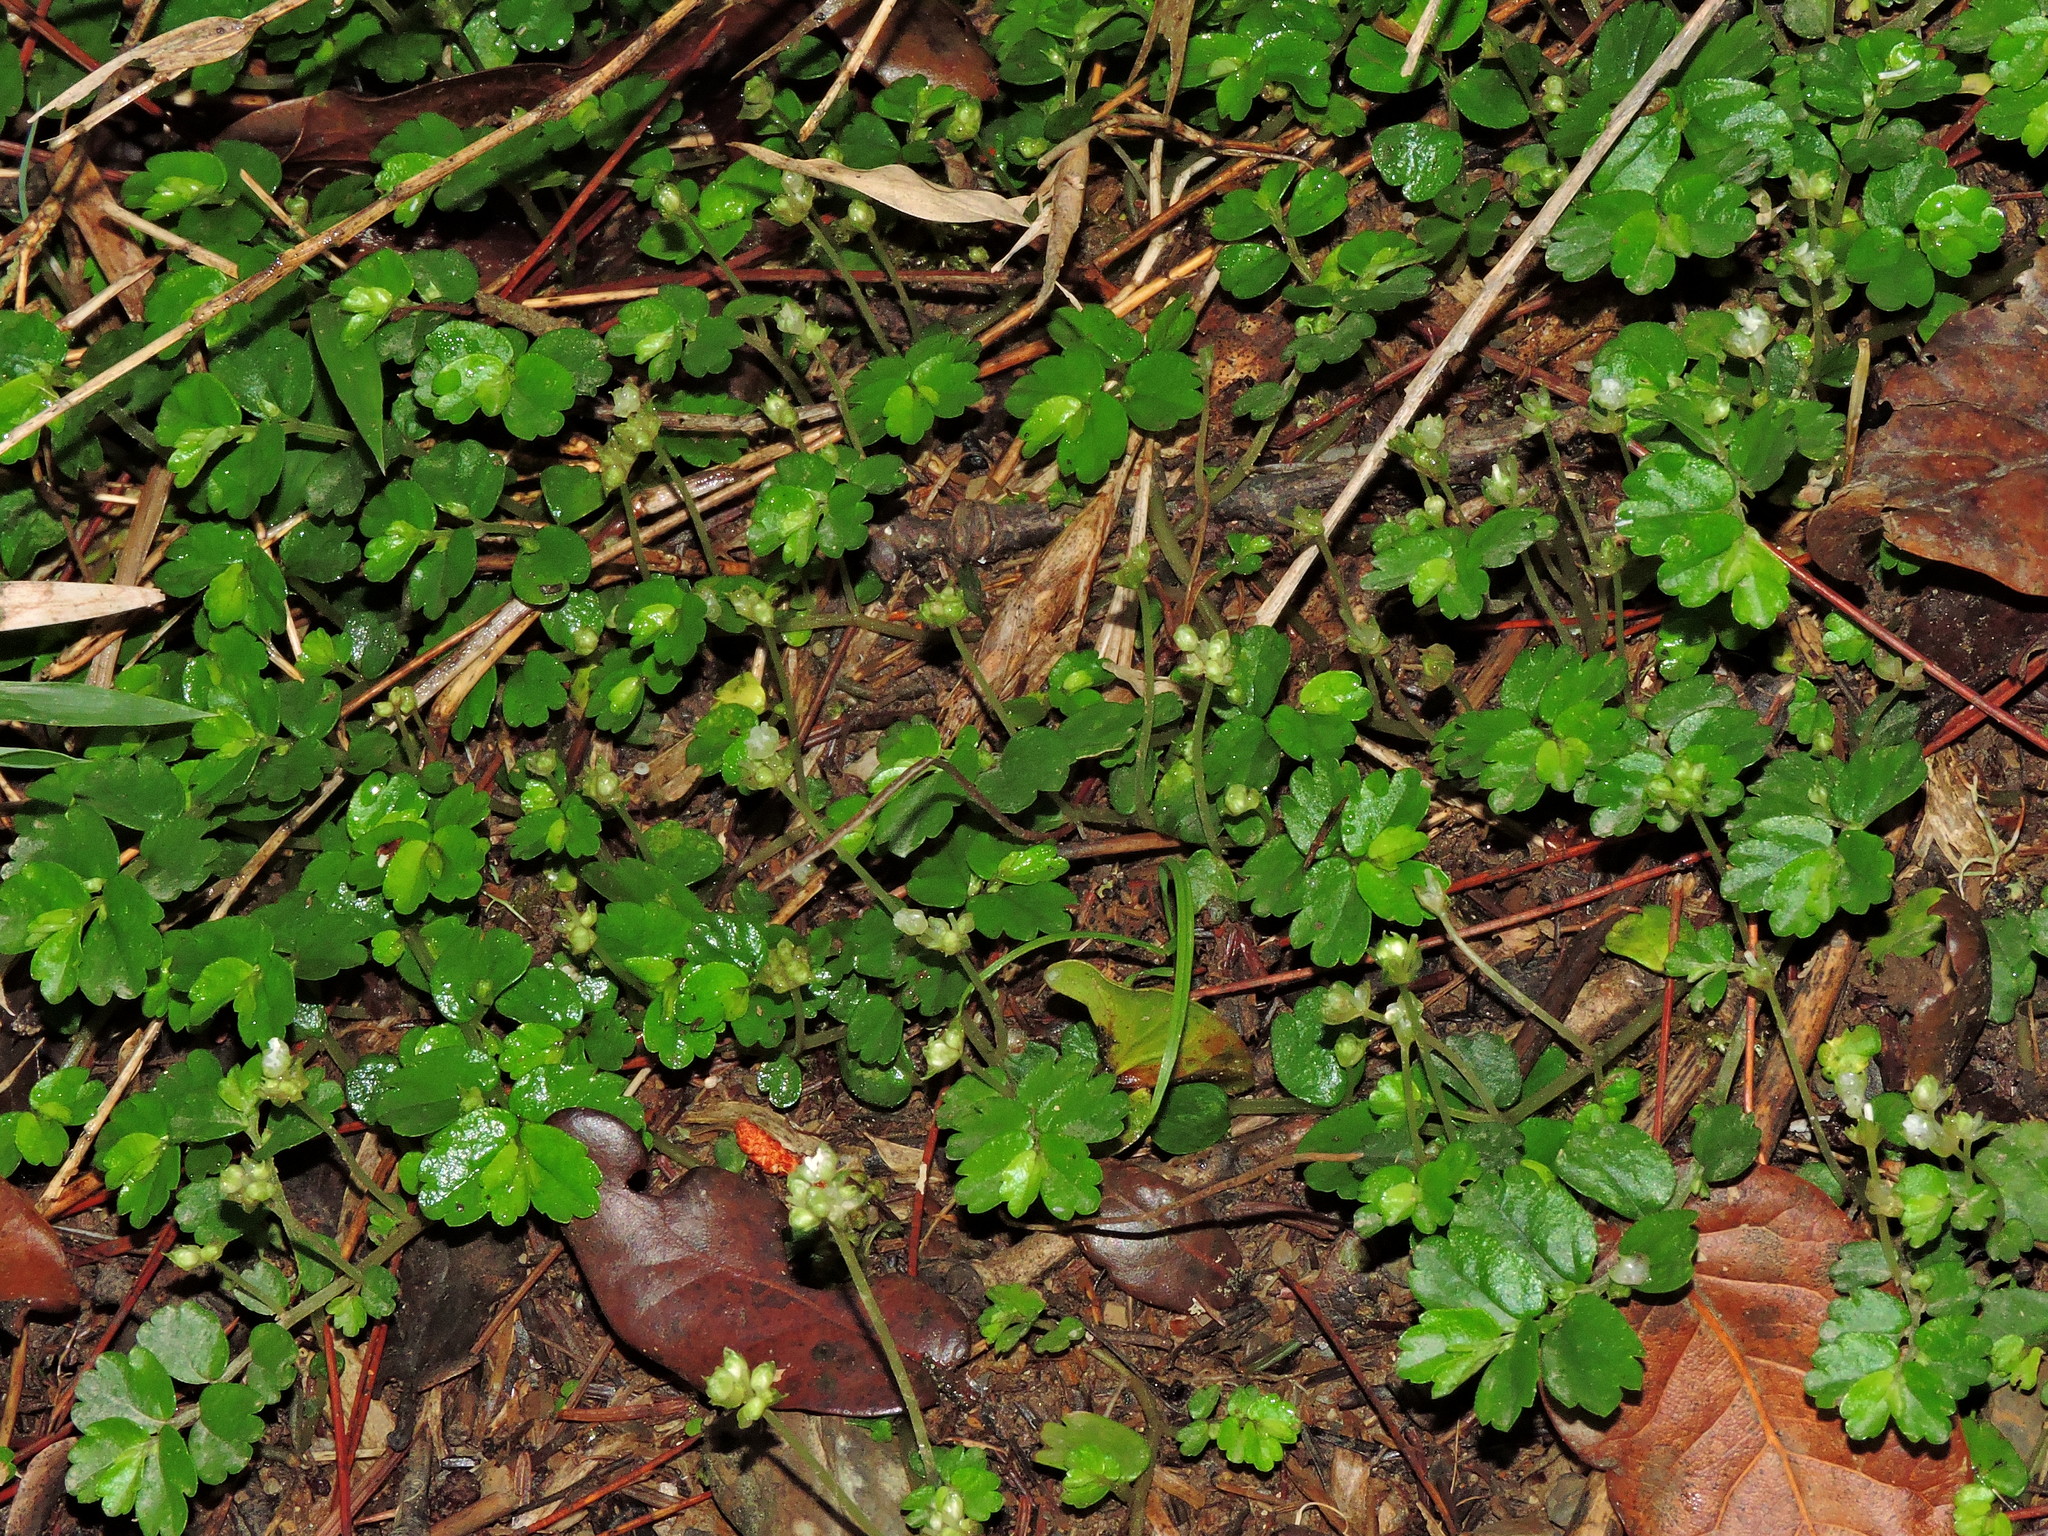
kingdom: Plantae
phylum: Tracheophyta
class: Magnoliopsida
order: Rosales
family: Urticaceae
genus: Elatostema
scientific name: Elatostema obtusum
